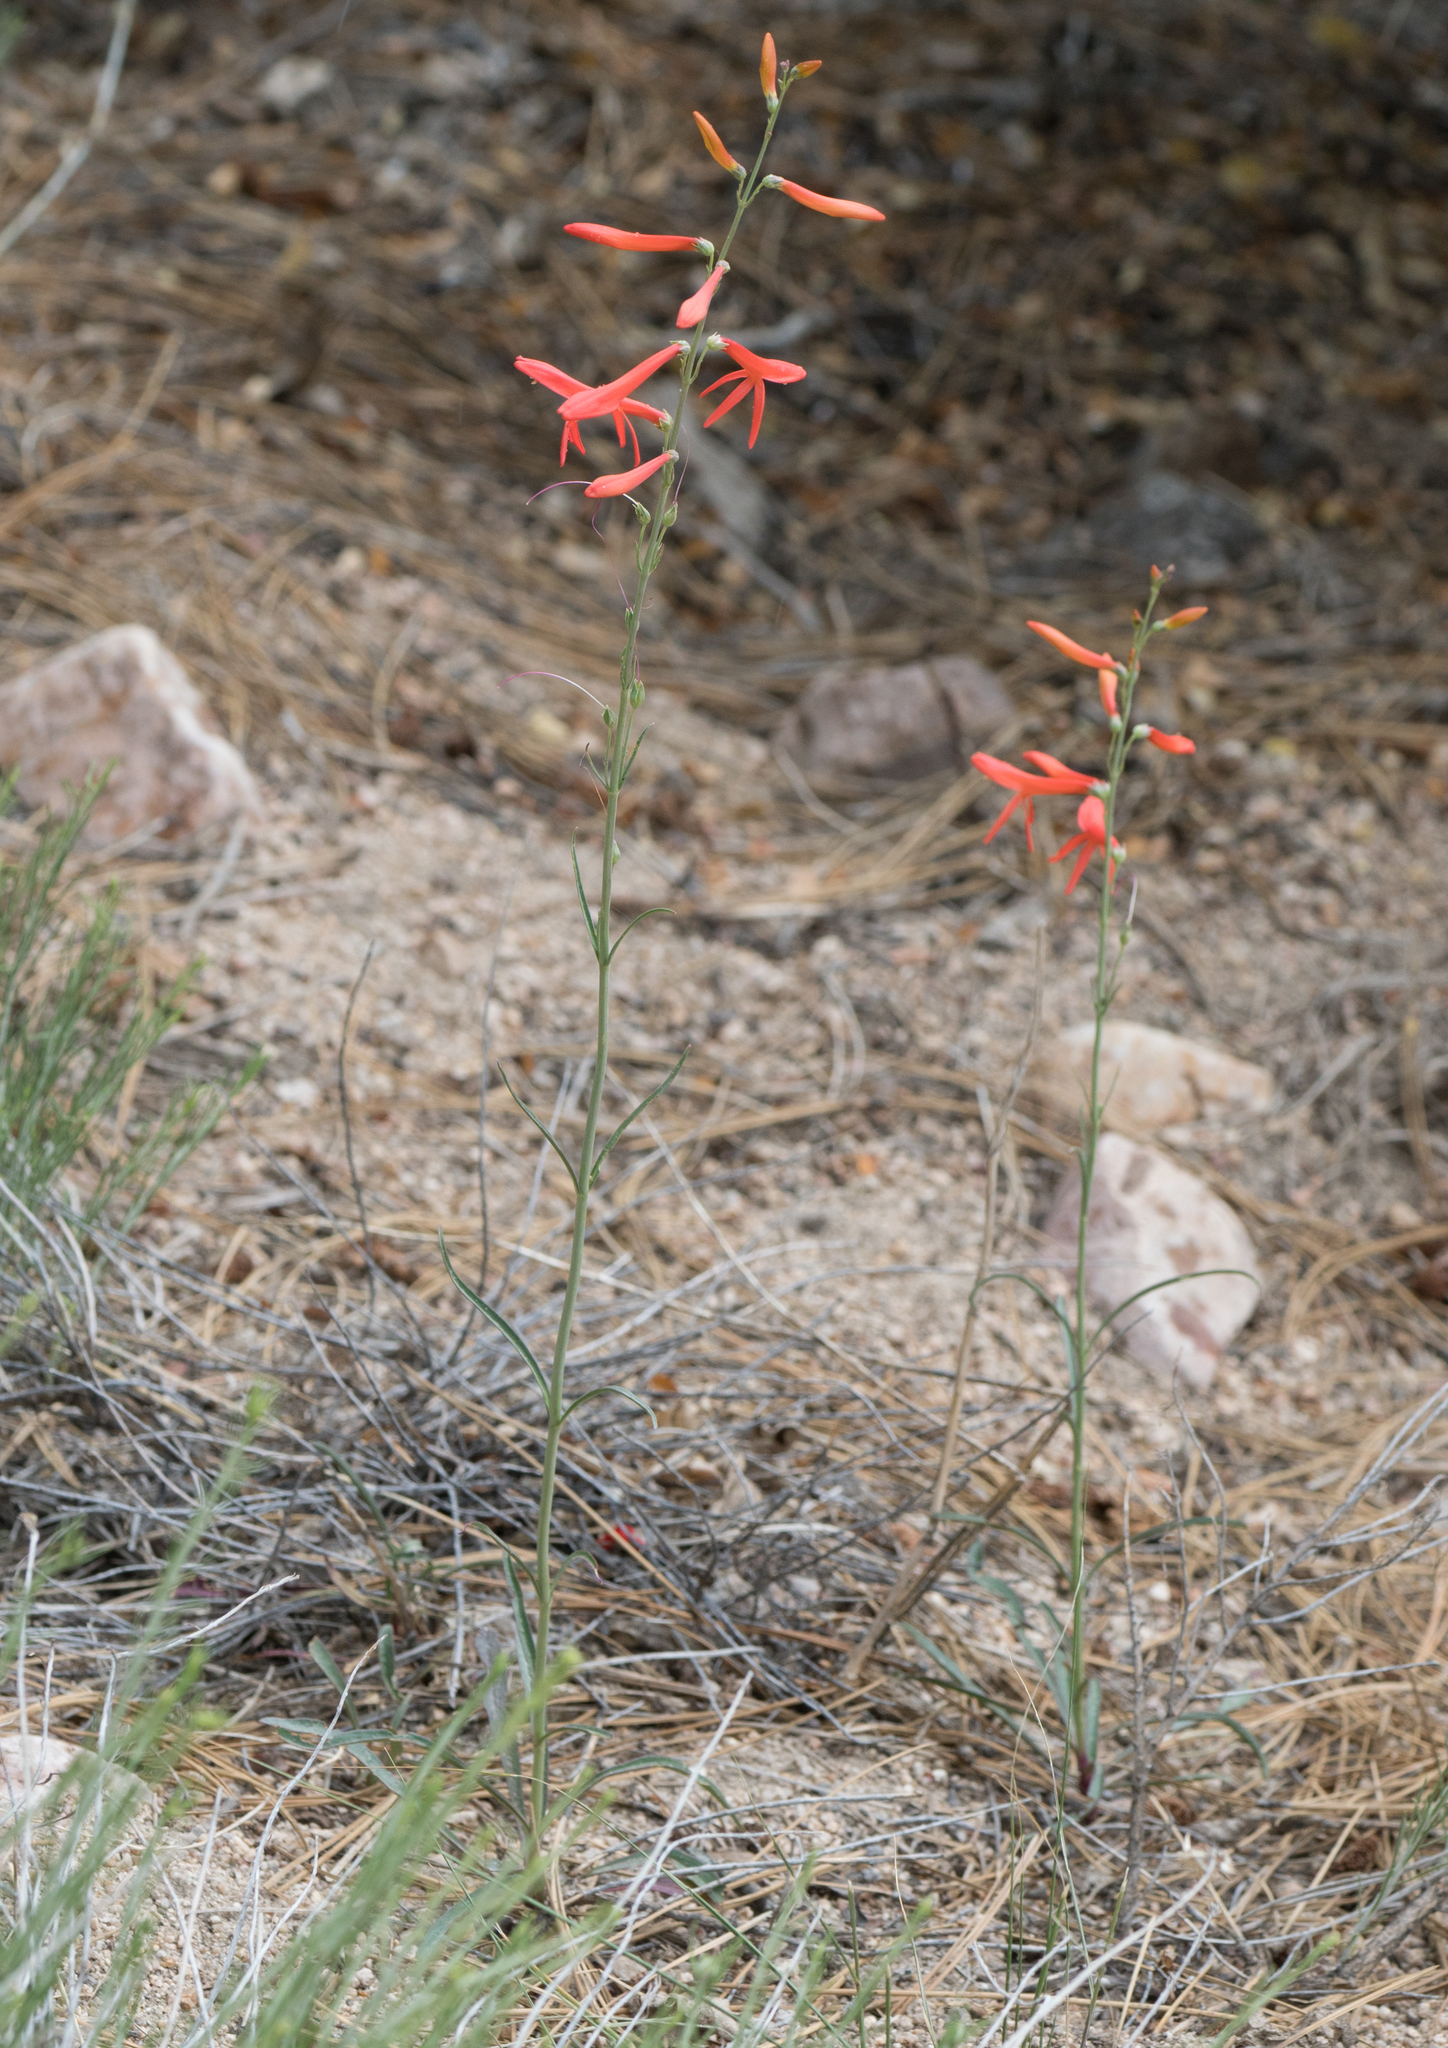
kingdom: Plantae
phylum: Tracheophyta
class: Magnoliopsida
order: Lamiales
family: Plantaginaceae
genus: Penstemon
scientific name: Penstemon labrosus
